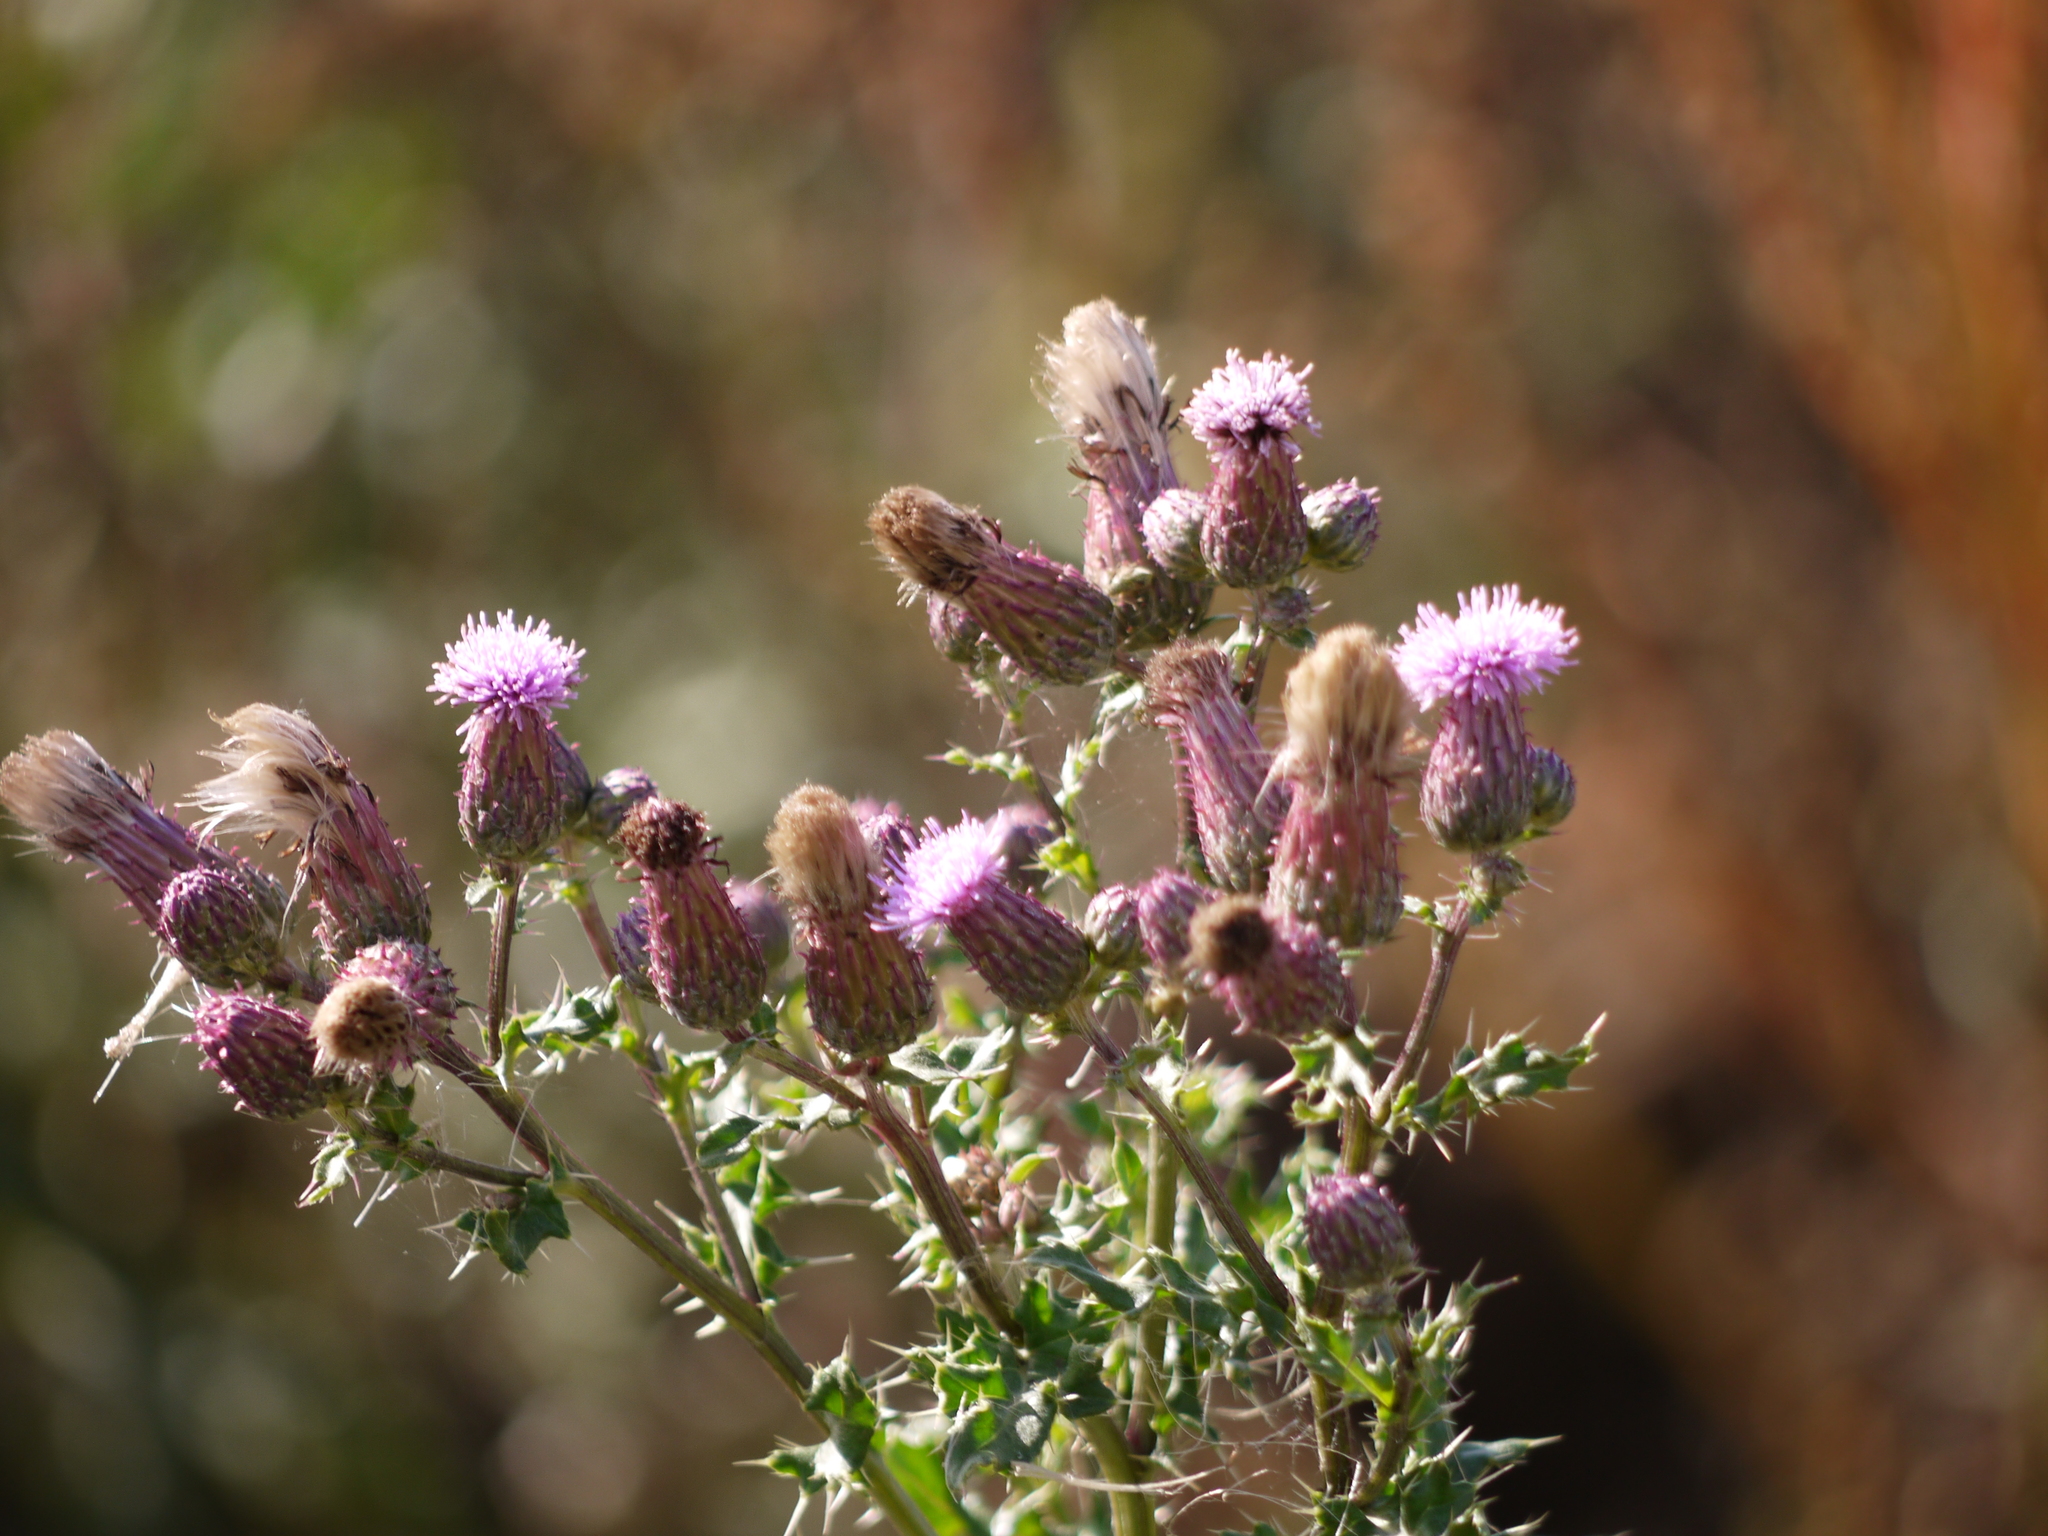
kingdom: Plantae
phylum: Tracheophyta
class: Magnoliopsida
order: Asterales
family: Asteraceae
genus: Cirsium
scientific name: Cirsium arvense
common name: Creeping thistle
